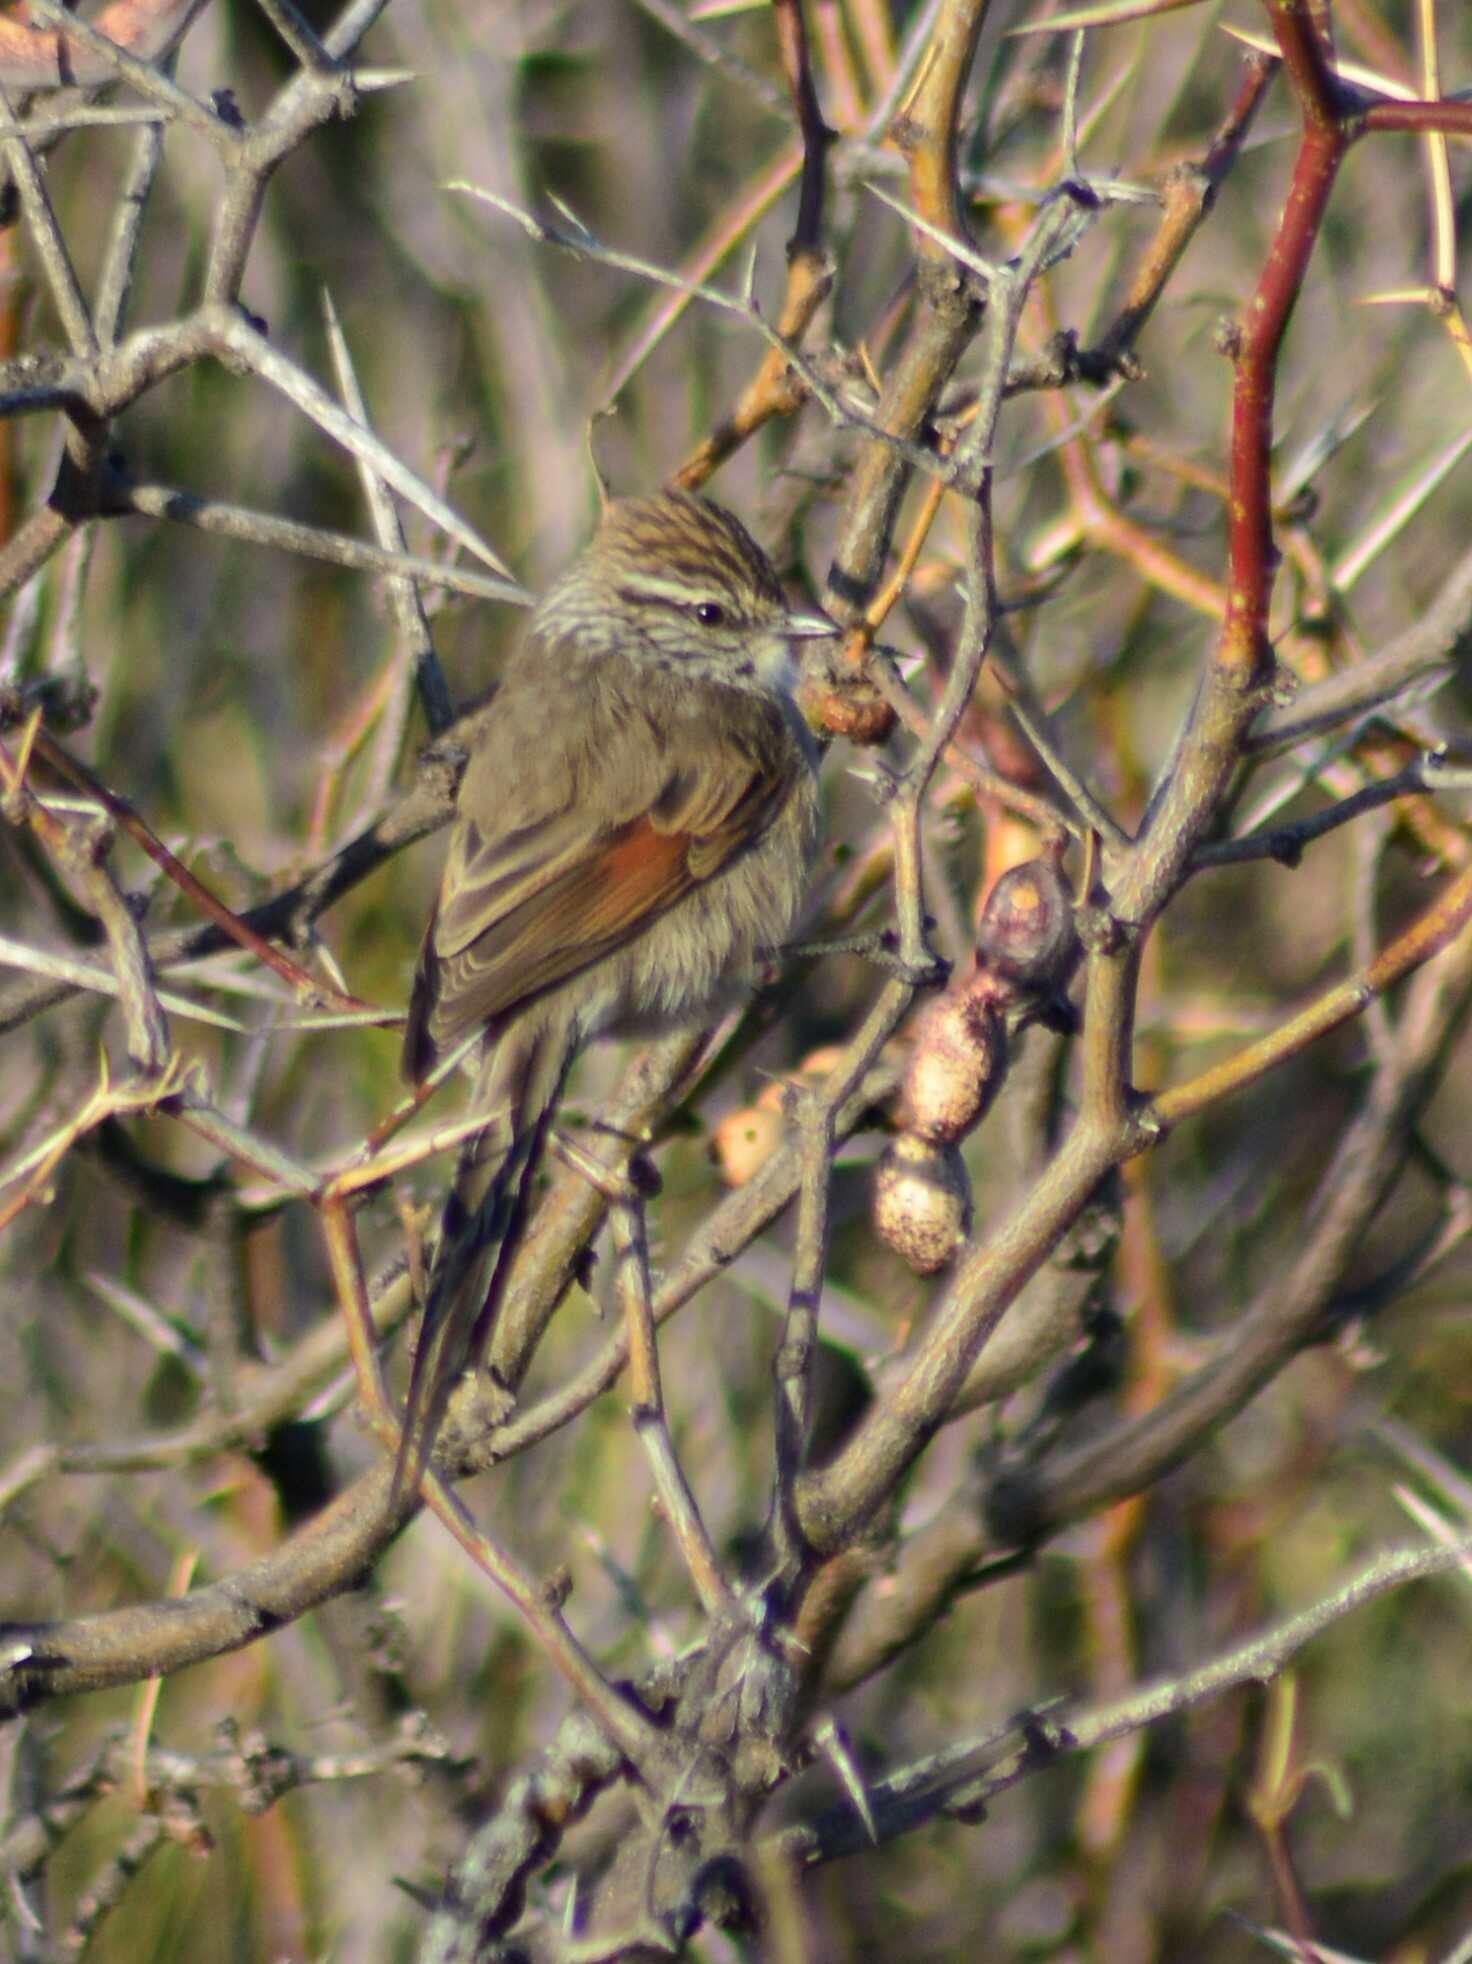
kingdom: Animalia
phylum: Chordata
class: Aves
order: Passeriformes
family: Furnariidae
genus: Leptasthenura
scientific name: Leptasthenura aegithaloides
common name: Plain-mantled tit-spinetail
